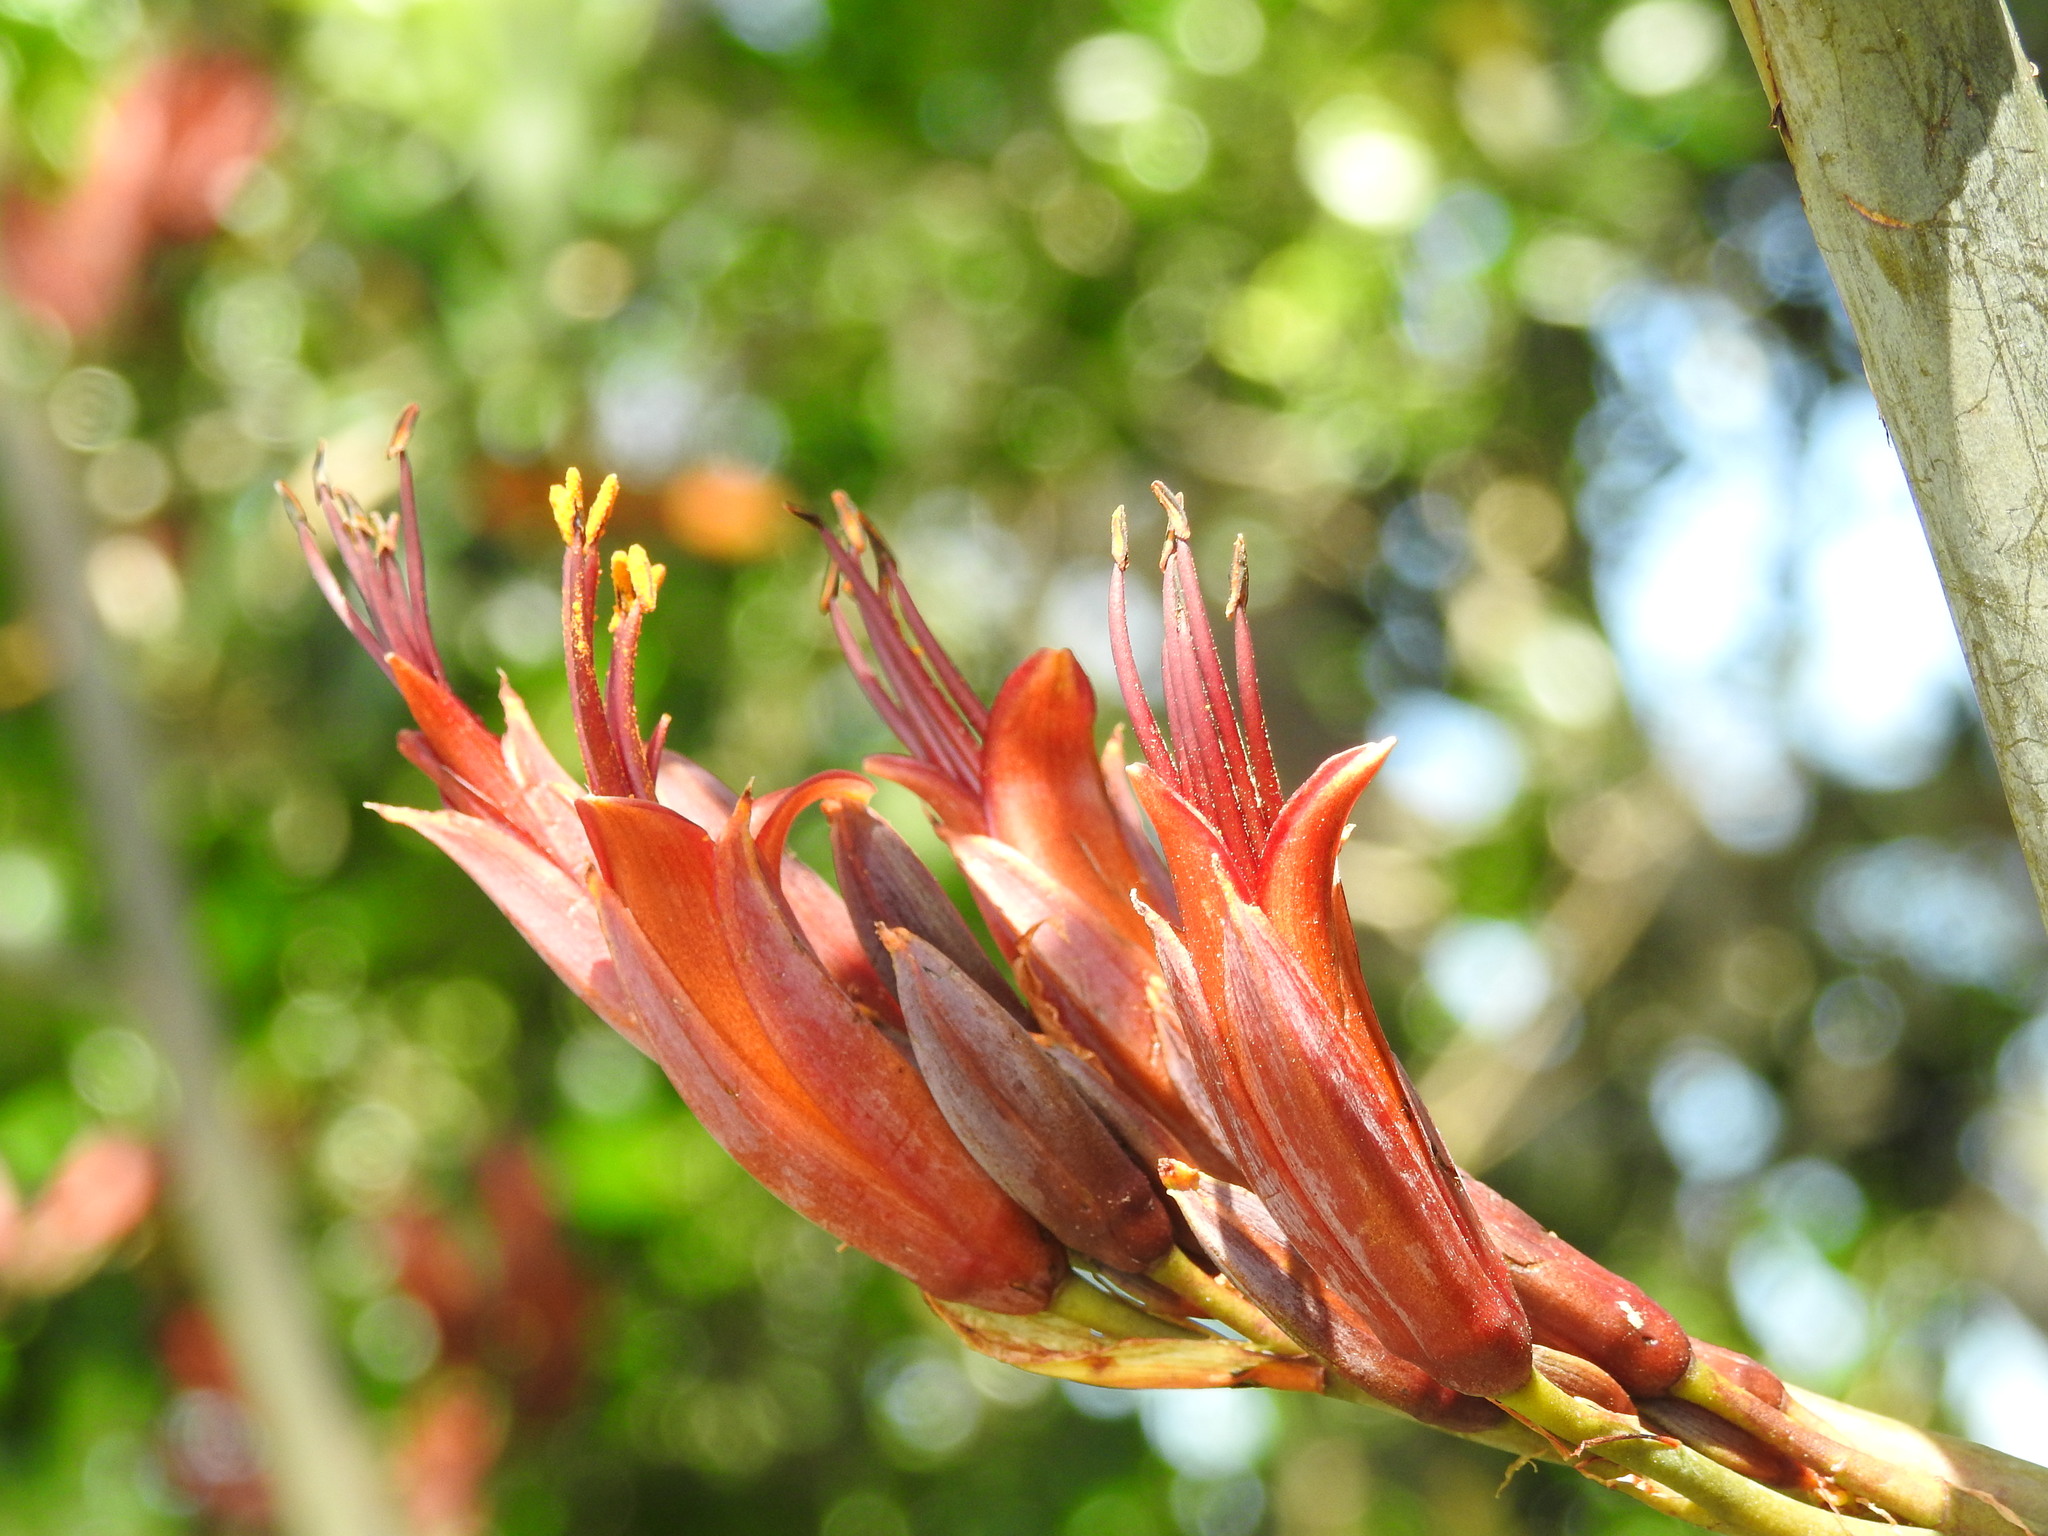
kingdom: Plantae
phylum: Tracheophyta
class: Liliopsida
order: Asparagales
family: Asphodelaceae
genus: Phormium
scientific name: Phormium tenax
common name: New zealand flax
